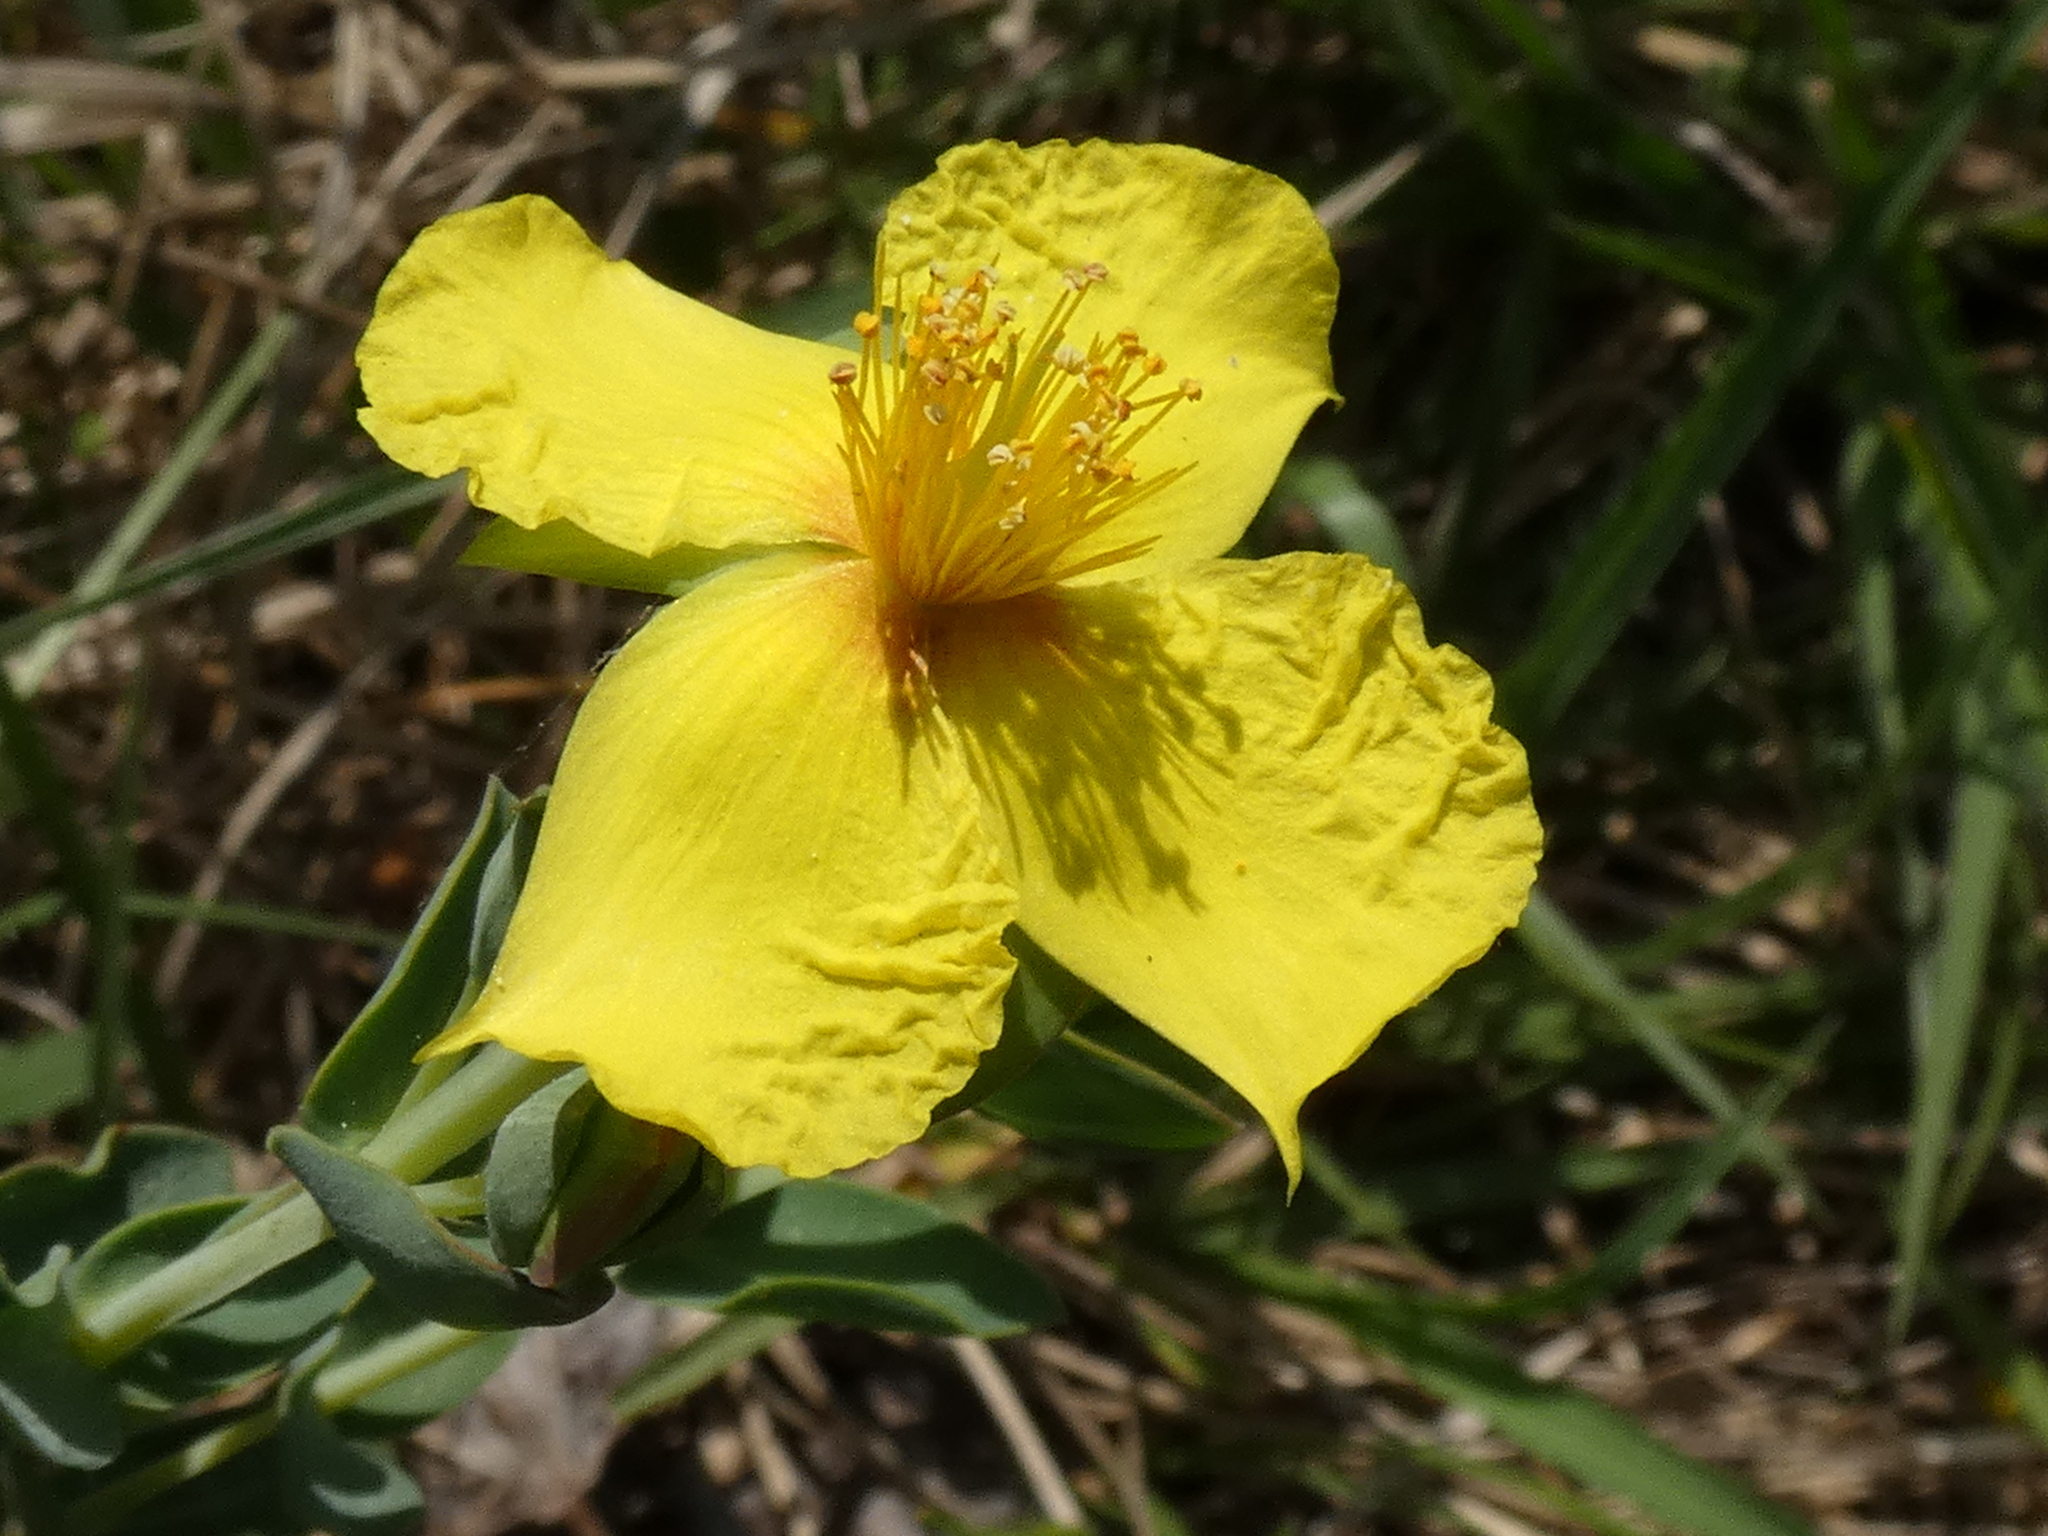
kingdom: Plantae
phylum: Tracheophyta
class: Magnoliopsida
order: Malpighiales
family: Hypericaceae
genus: Hypericum
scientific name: Hypericum tetrapetalum
